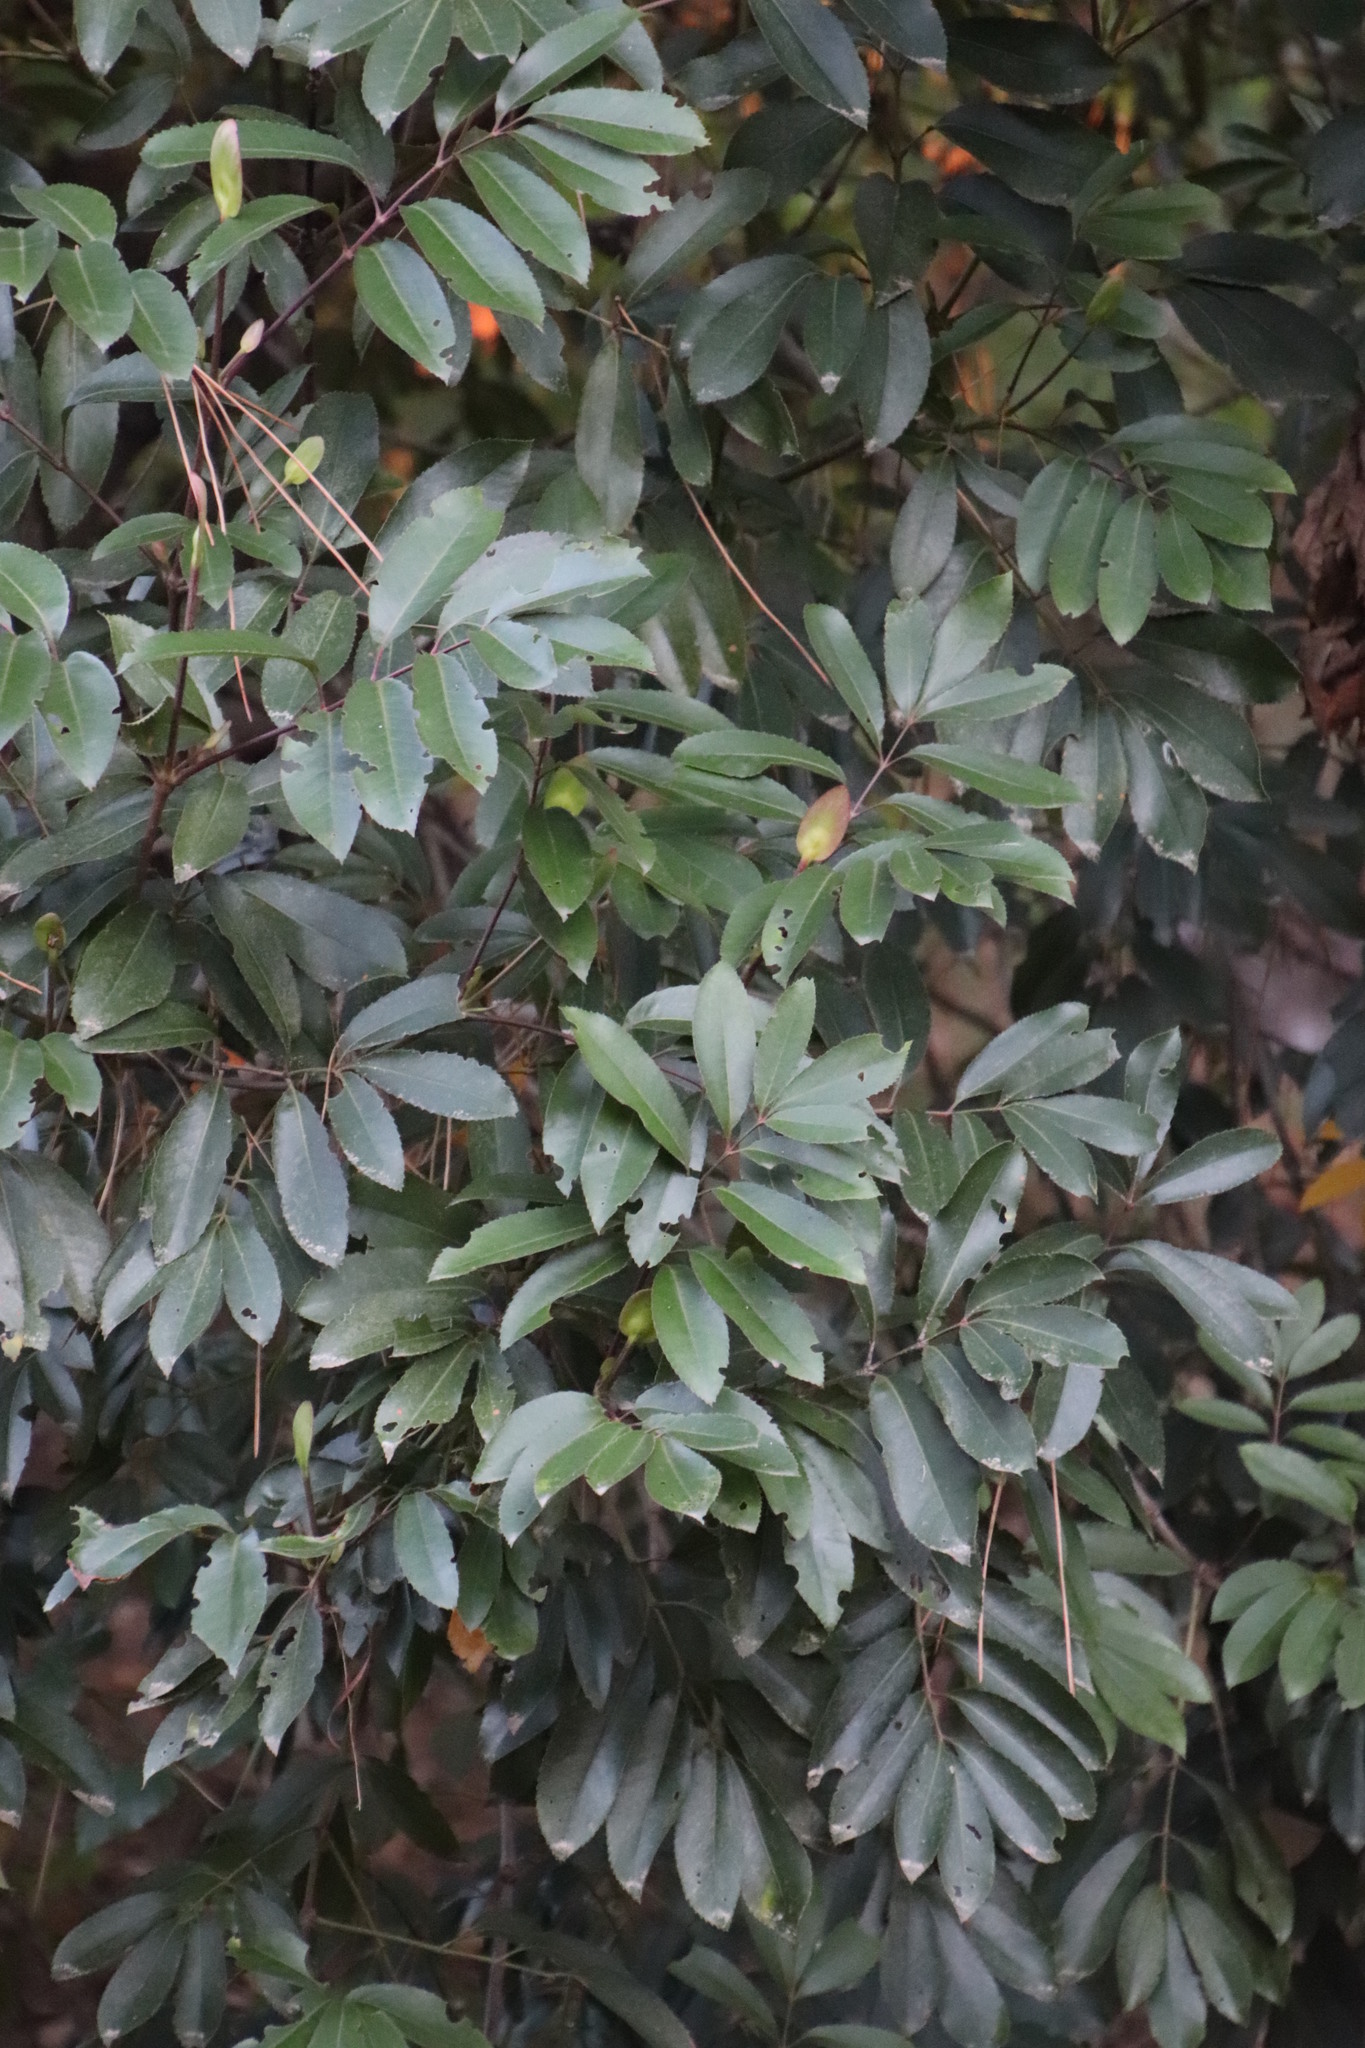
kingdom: Plantae
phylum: Tracheophyta
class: Magnoliopsida
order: Oxalidales
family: Cunoniaceae
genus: Cunonia
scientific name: Cunonia capensis
